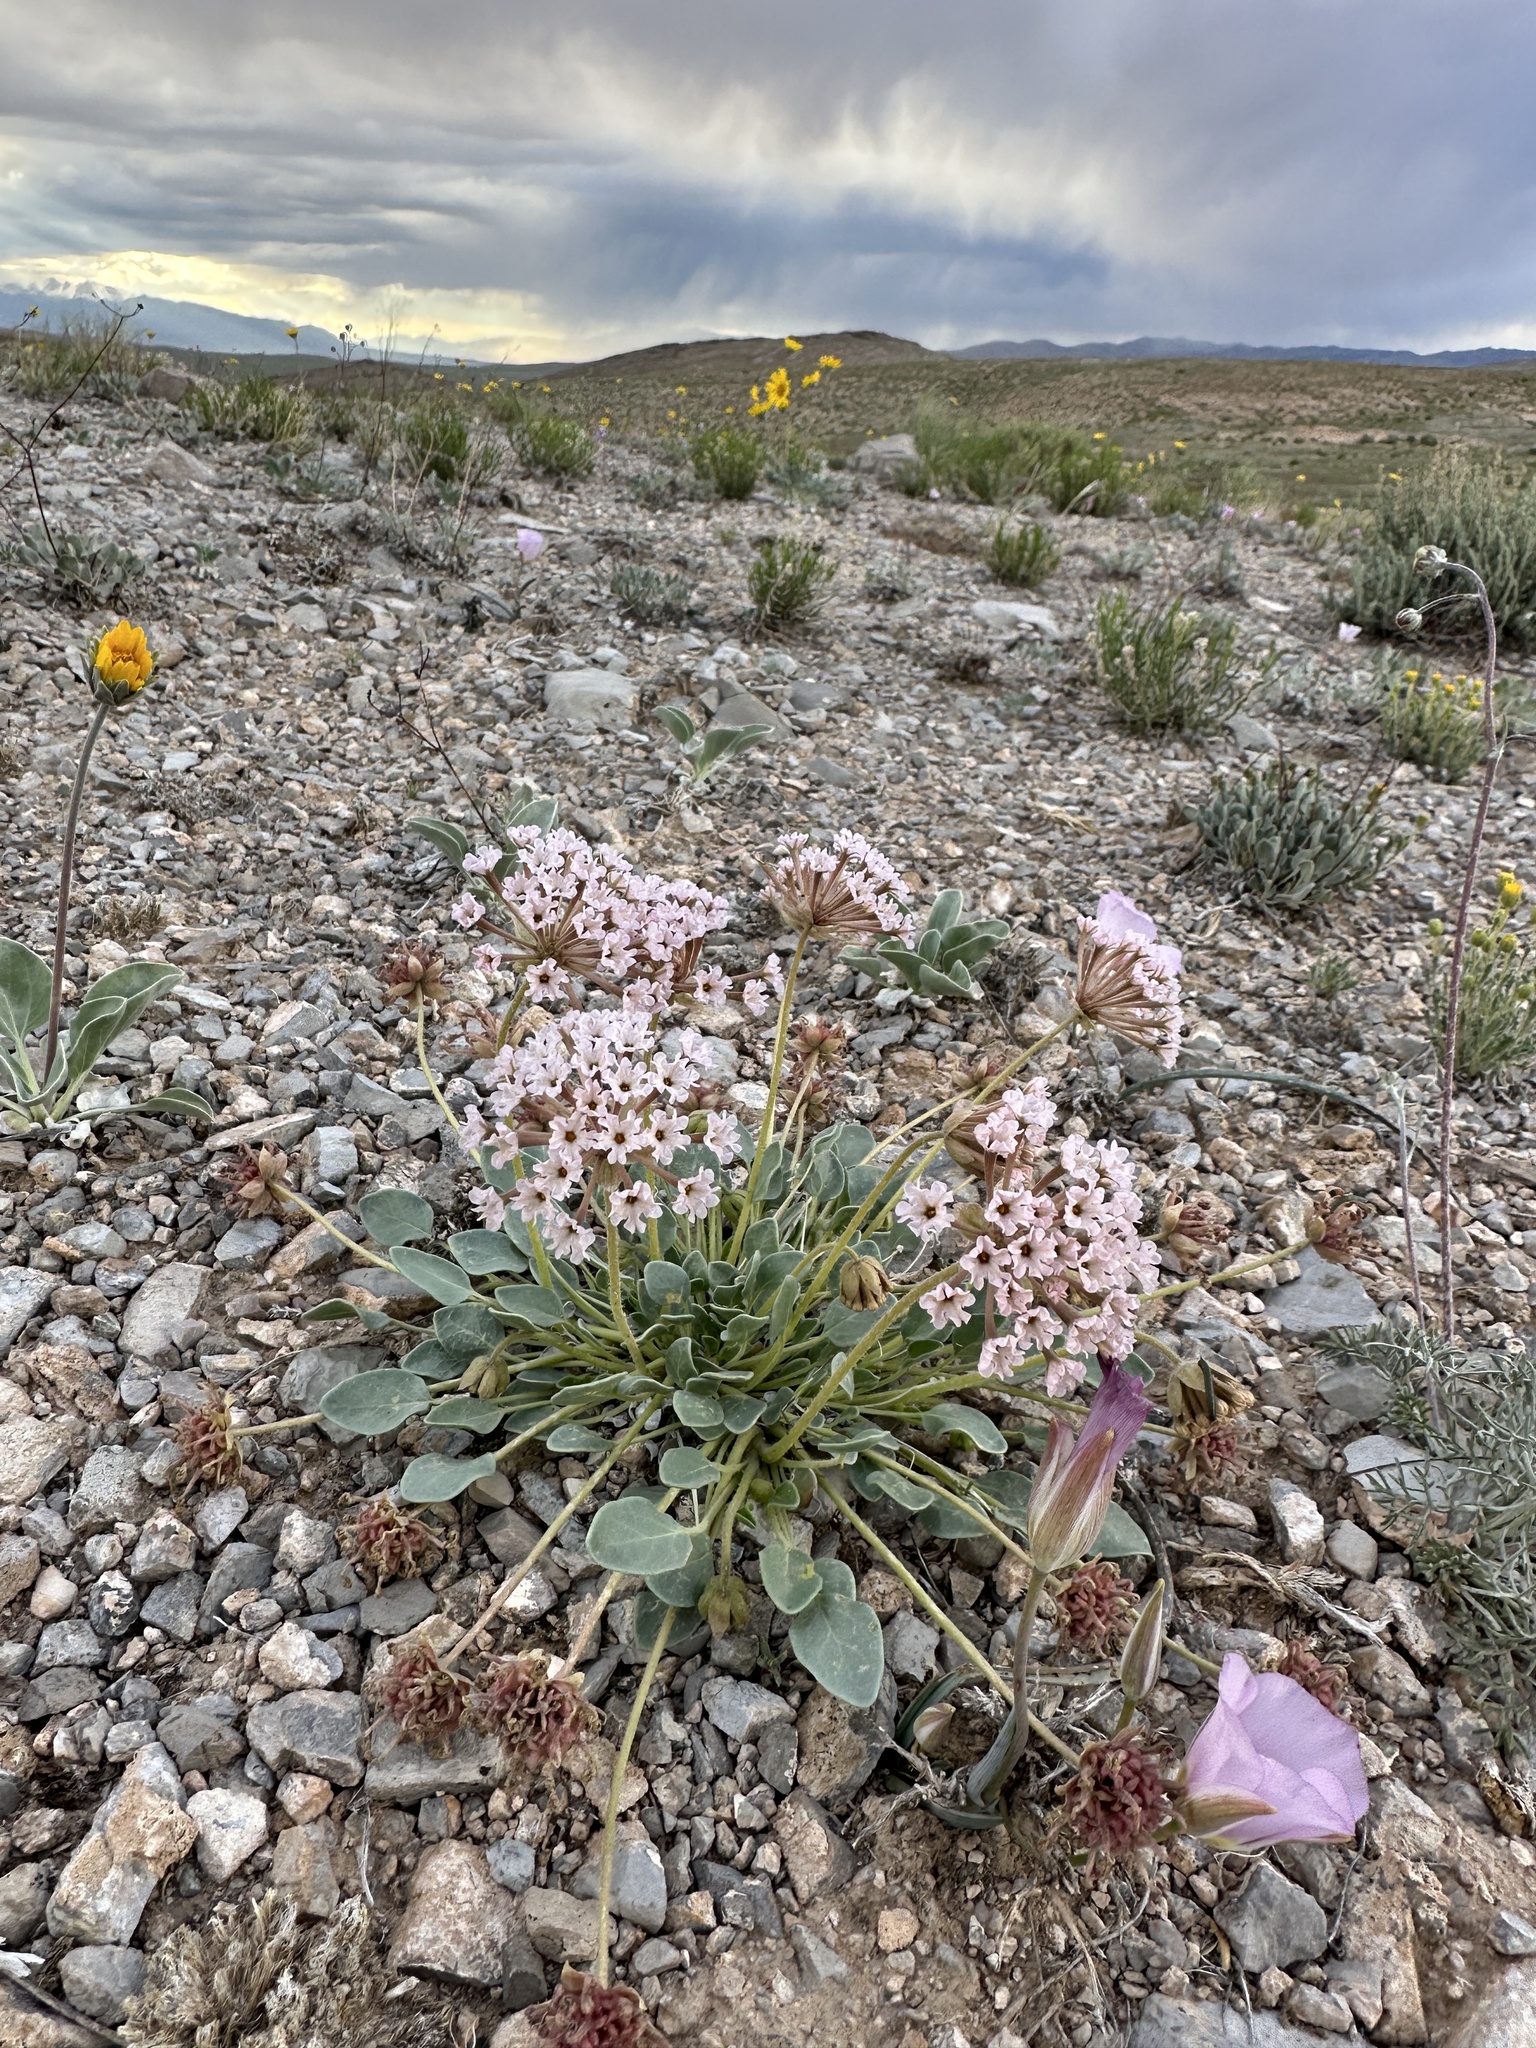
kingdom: Plantae
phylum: Tracheophyta
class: Magnoliopsida
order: Caryophyllales
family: Nyctaginaceae
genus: Abronia
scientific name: Abronia nana
